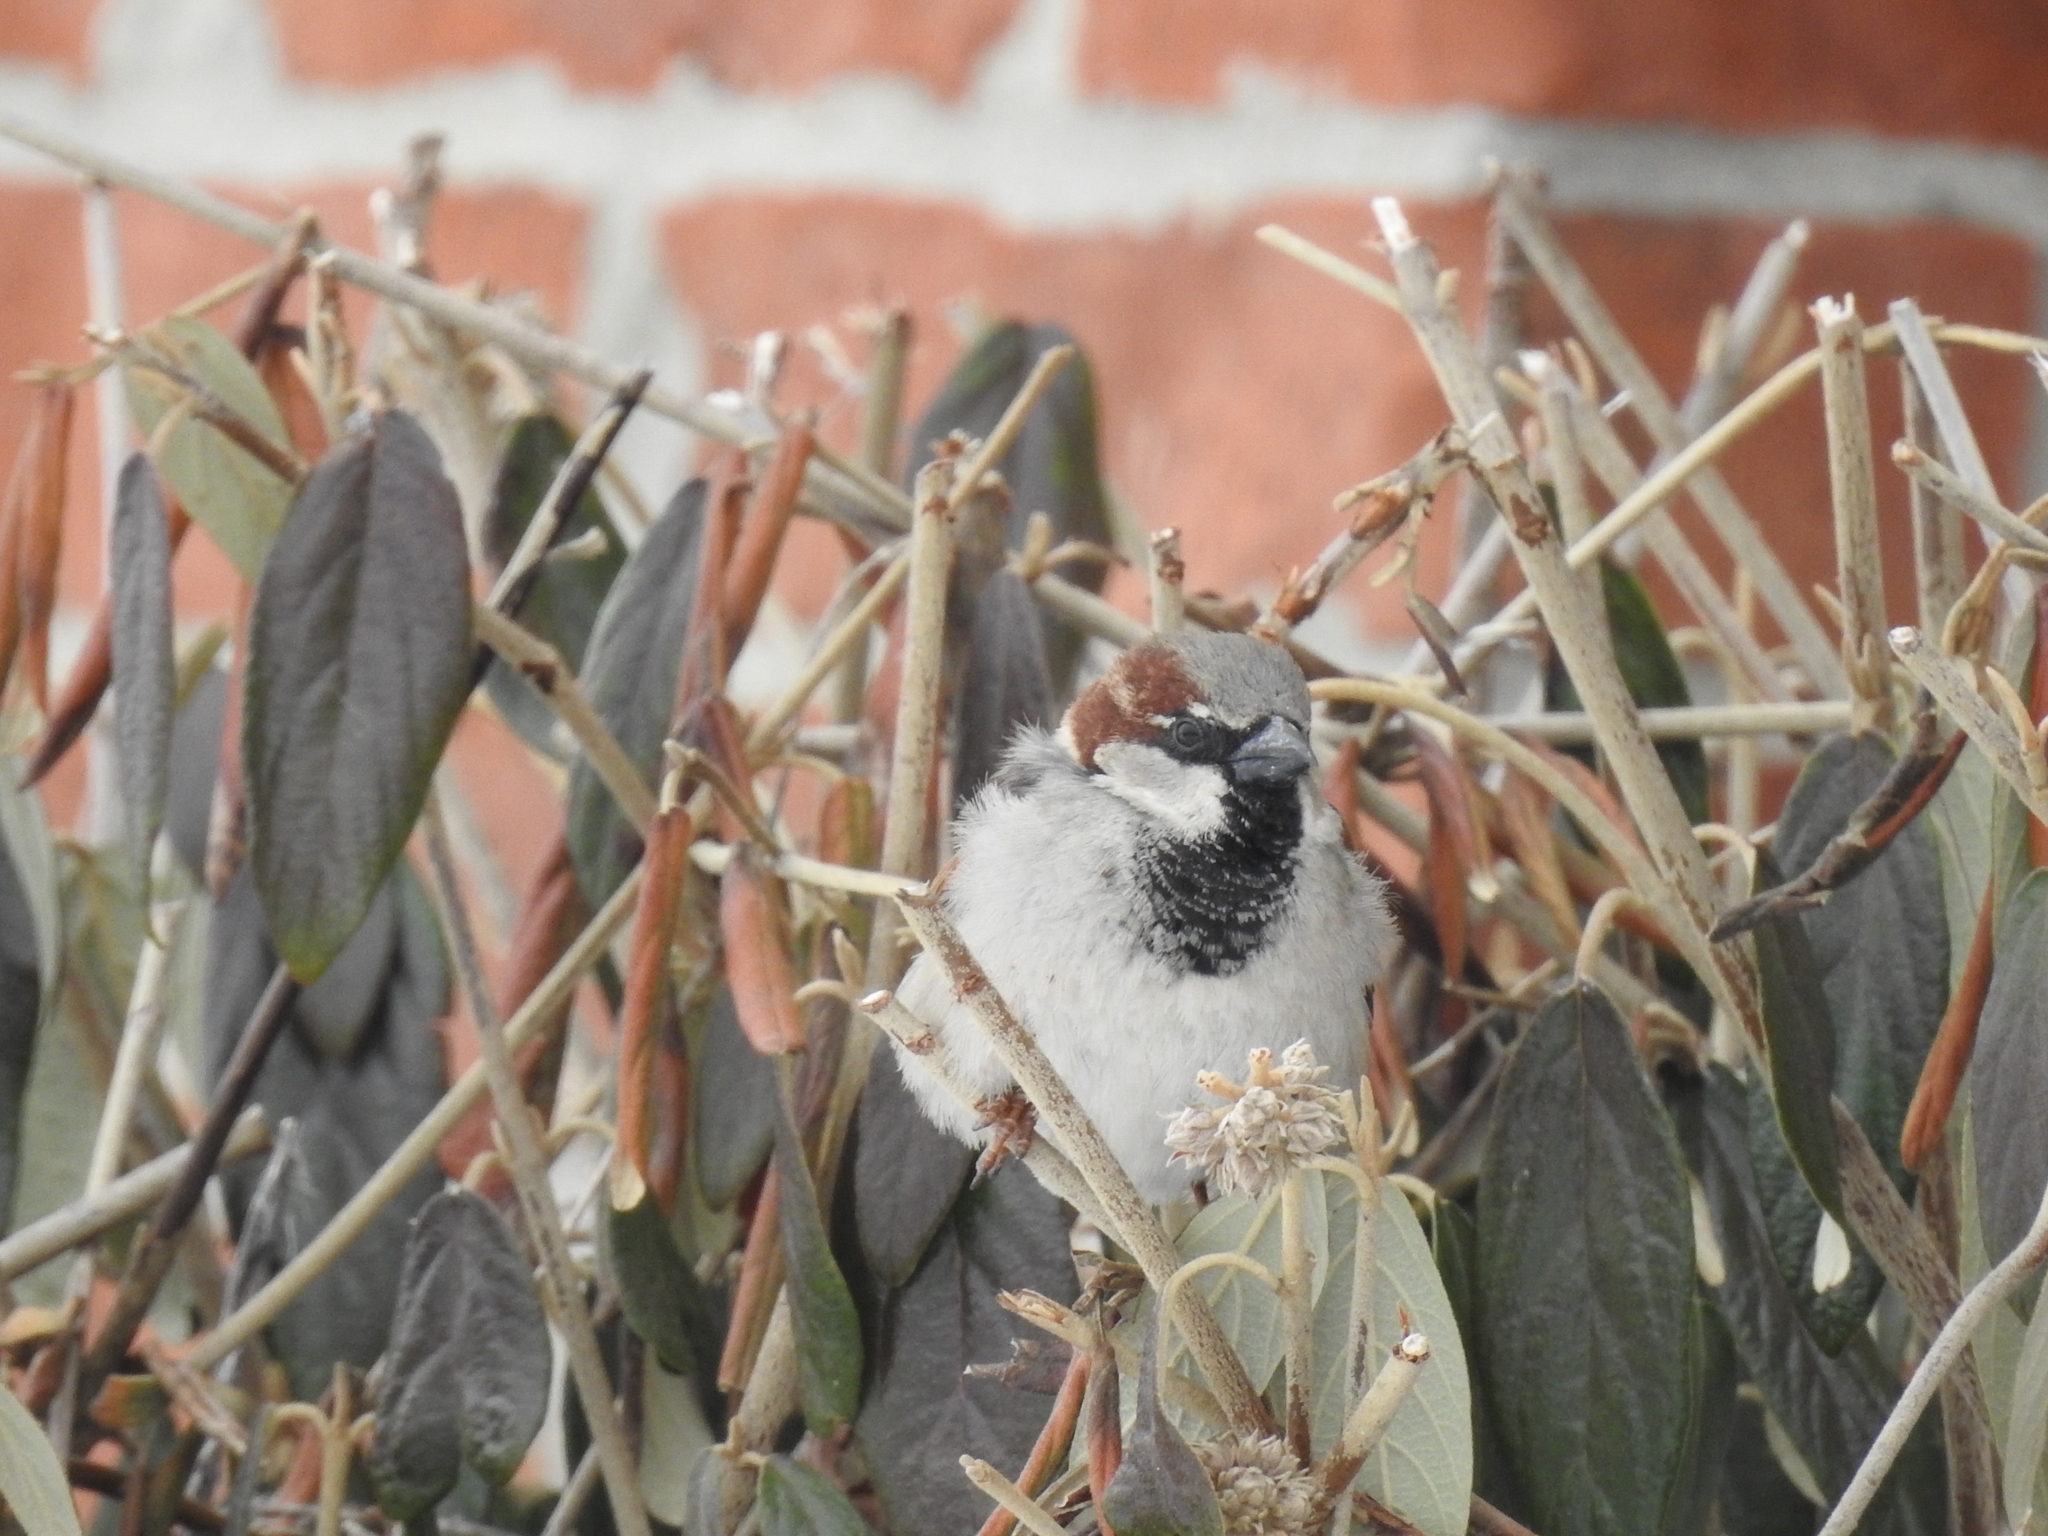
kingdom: Animalia
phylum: Chordata
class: Aves
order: Passeriformes
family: Passeridae
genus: Passer
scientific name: Passer domesticus
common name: House sparrow
